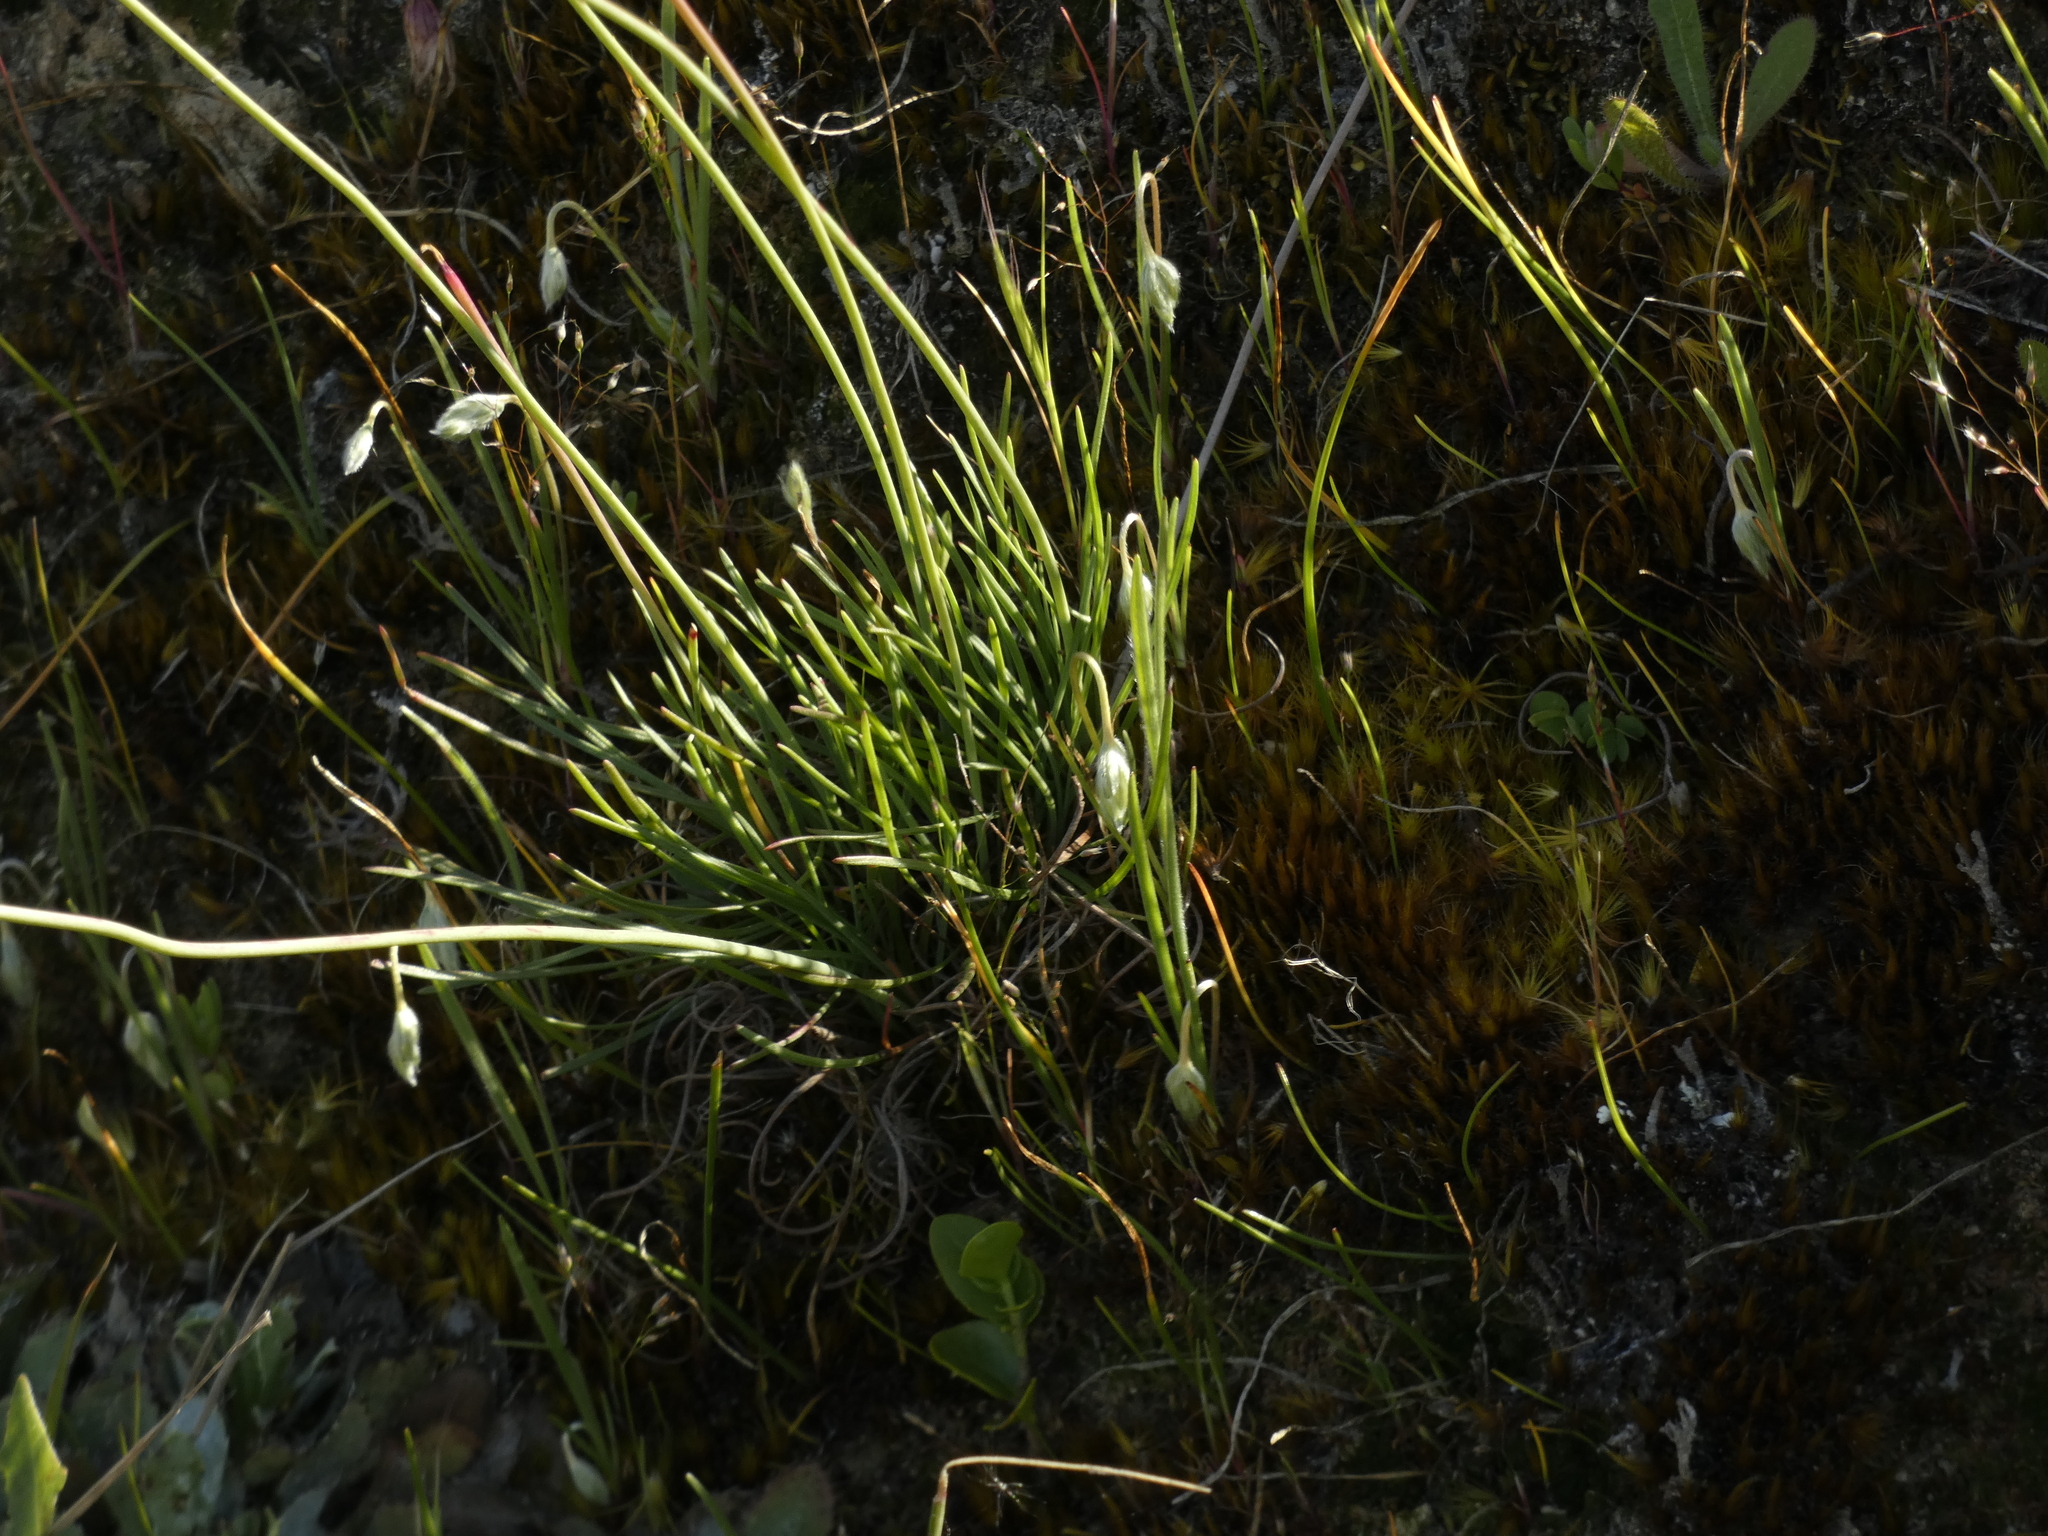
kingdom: Plantae
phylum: Tracheophyta
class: Magnoliopsida
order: Caryophyllales
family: Plumbaginaceae
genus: Armeria
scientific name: Armeria curvifolia
